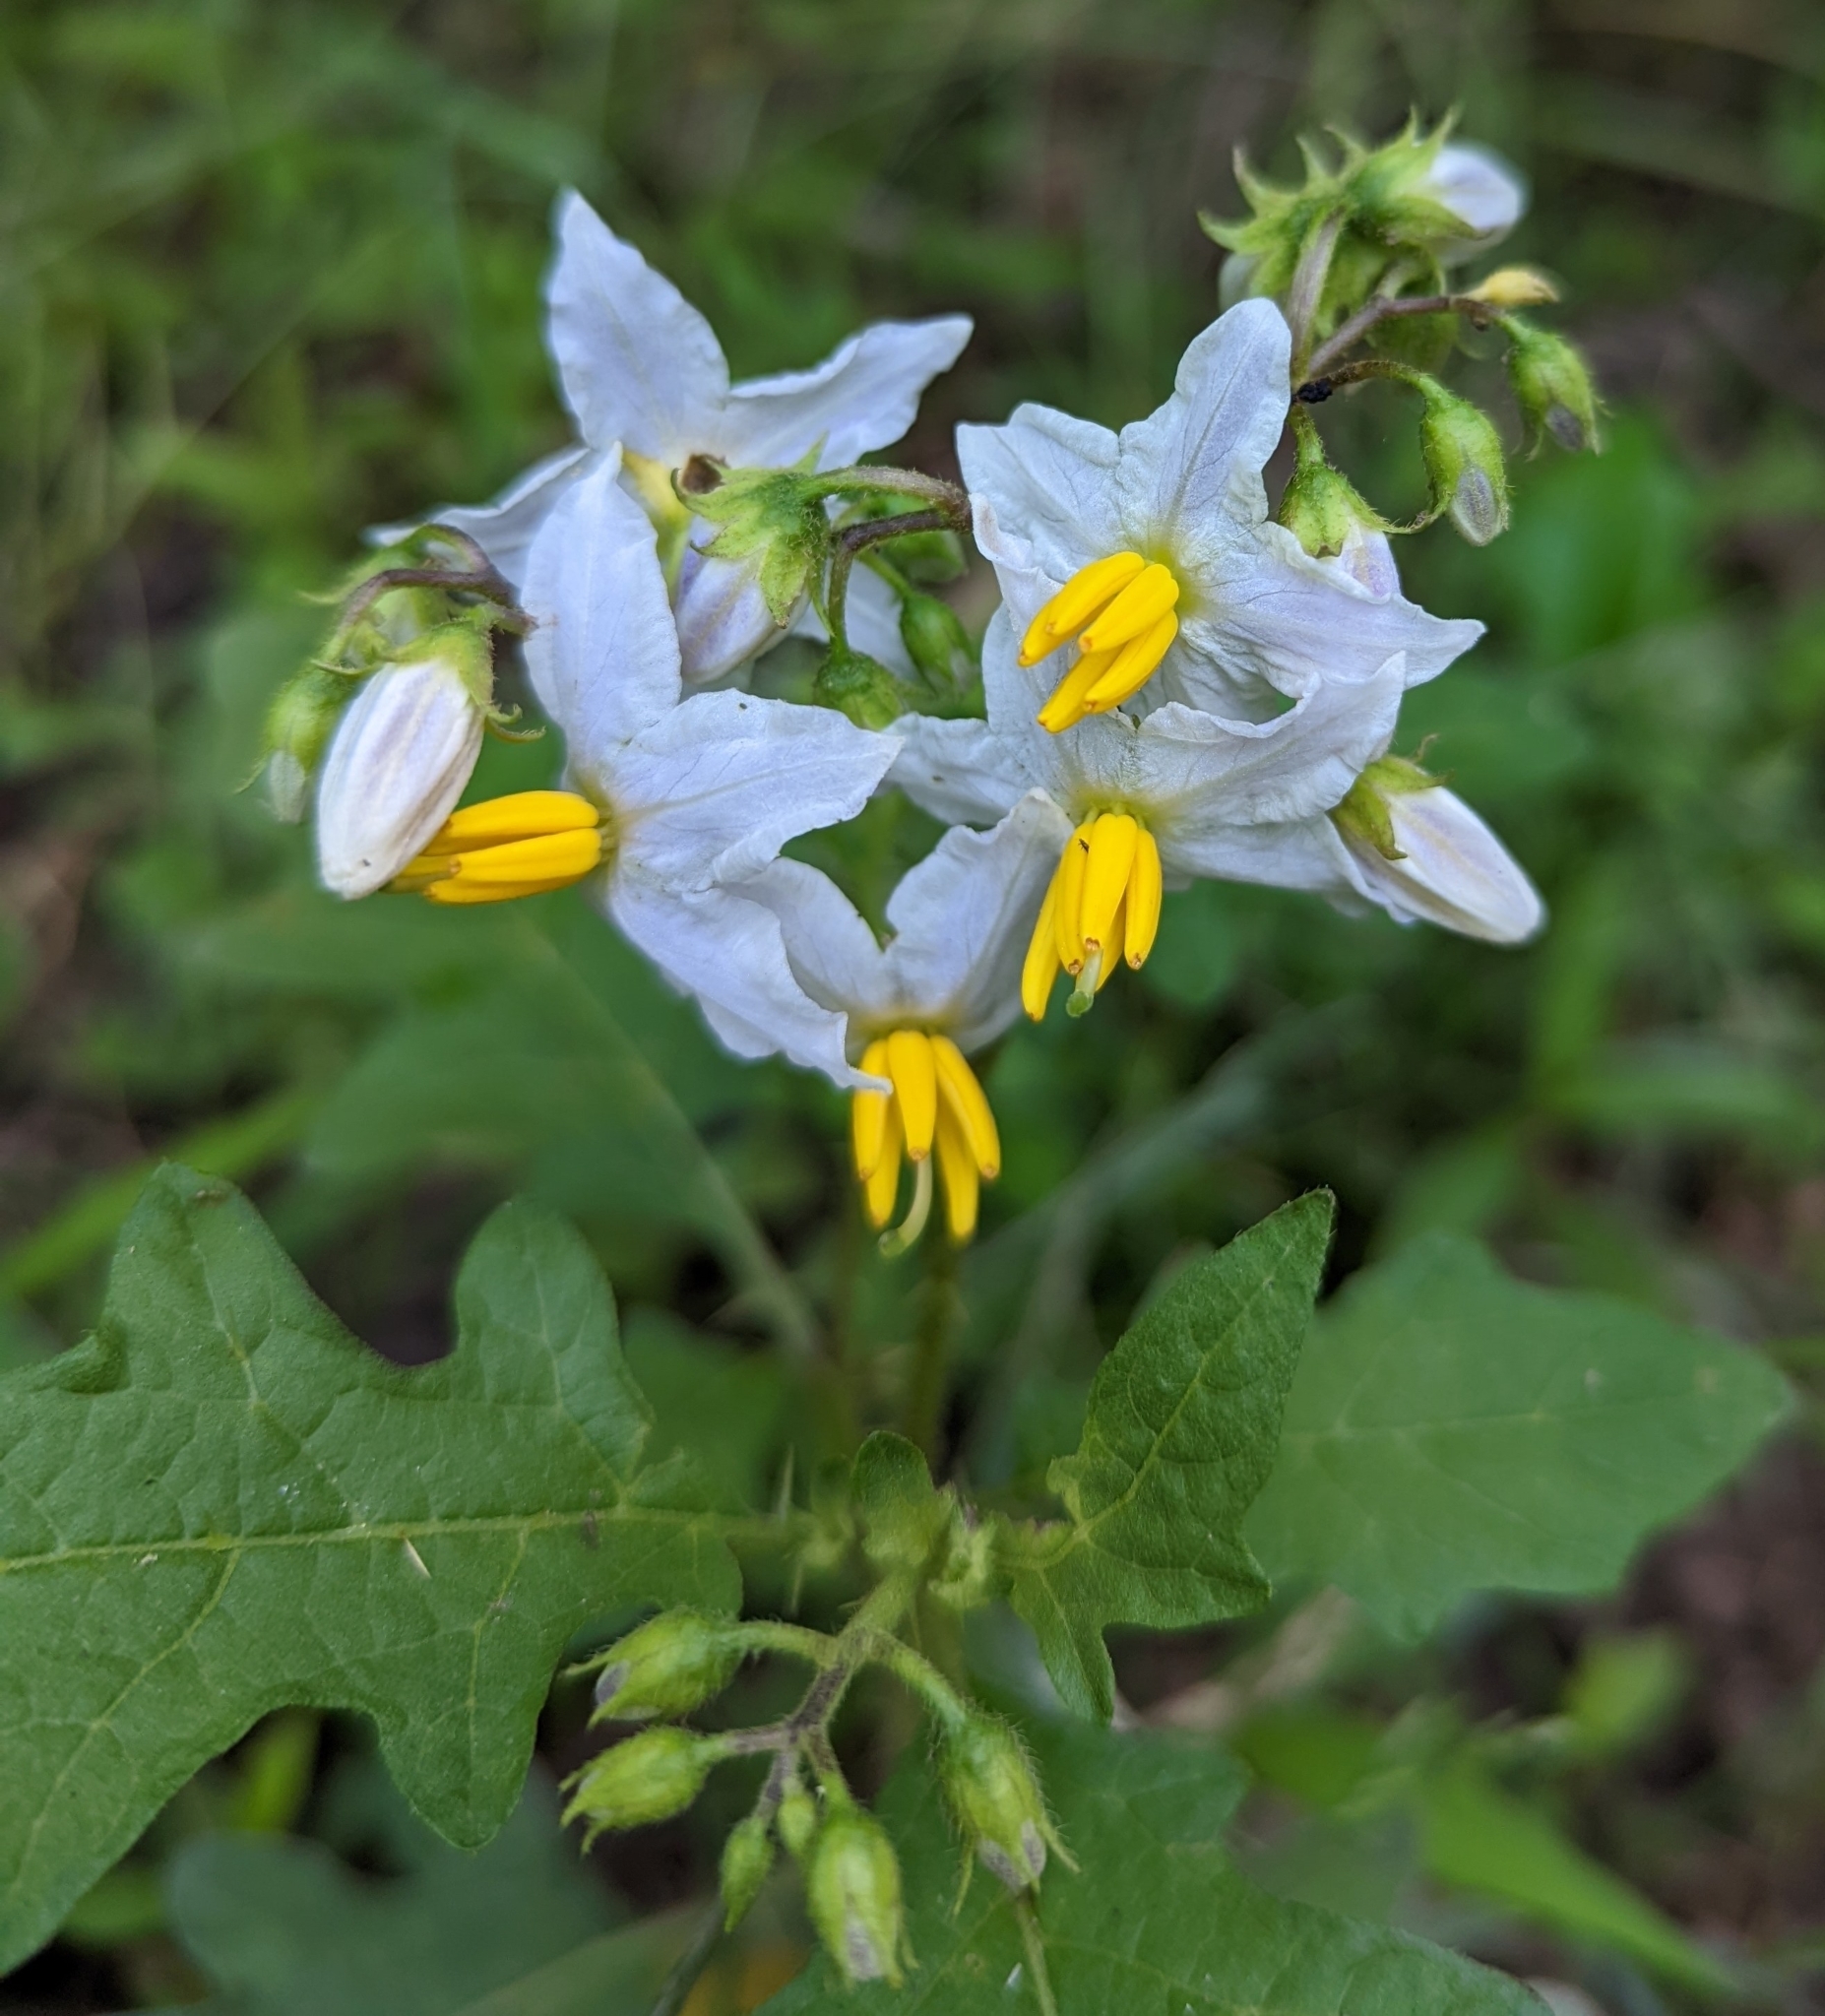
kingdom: Plantae
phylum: Tracheophyta
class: Magnoliopsida
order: Solanales
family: Solanaceae
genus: Solanum
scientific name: Solanum carolinense
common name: Horse-nettle
